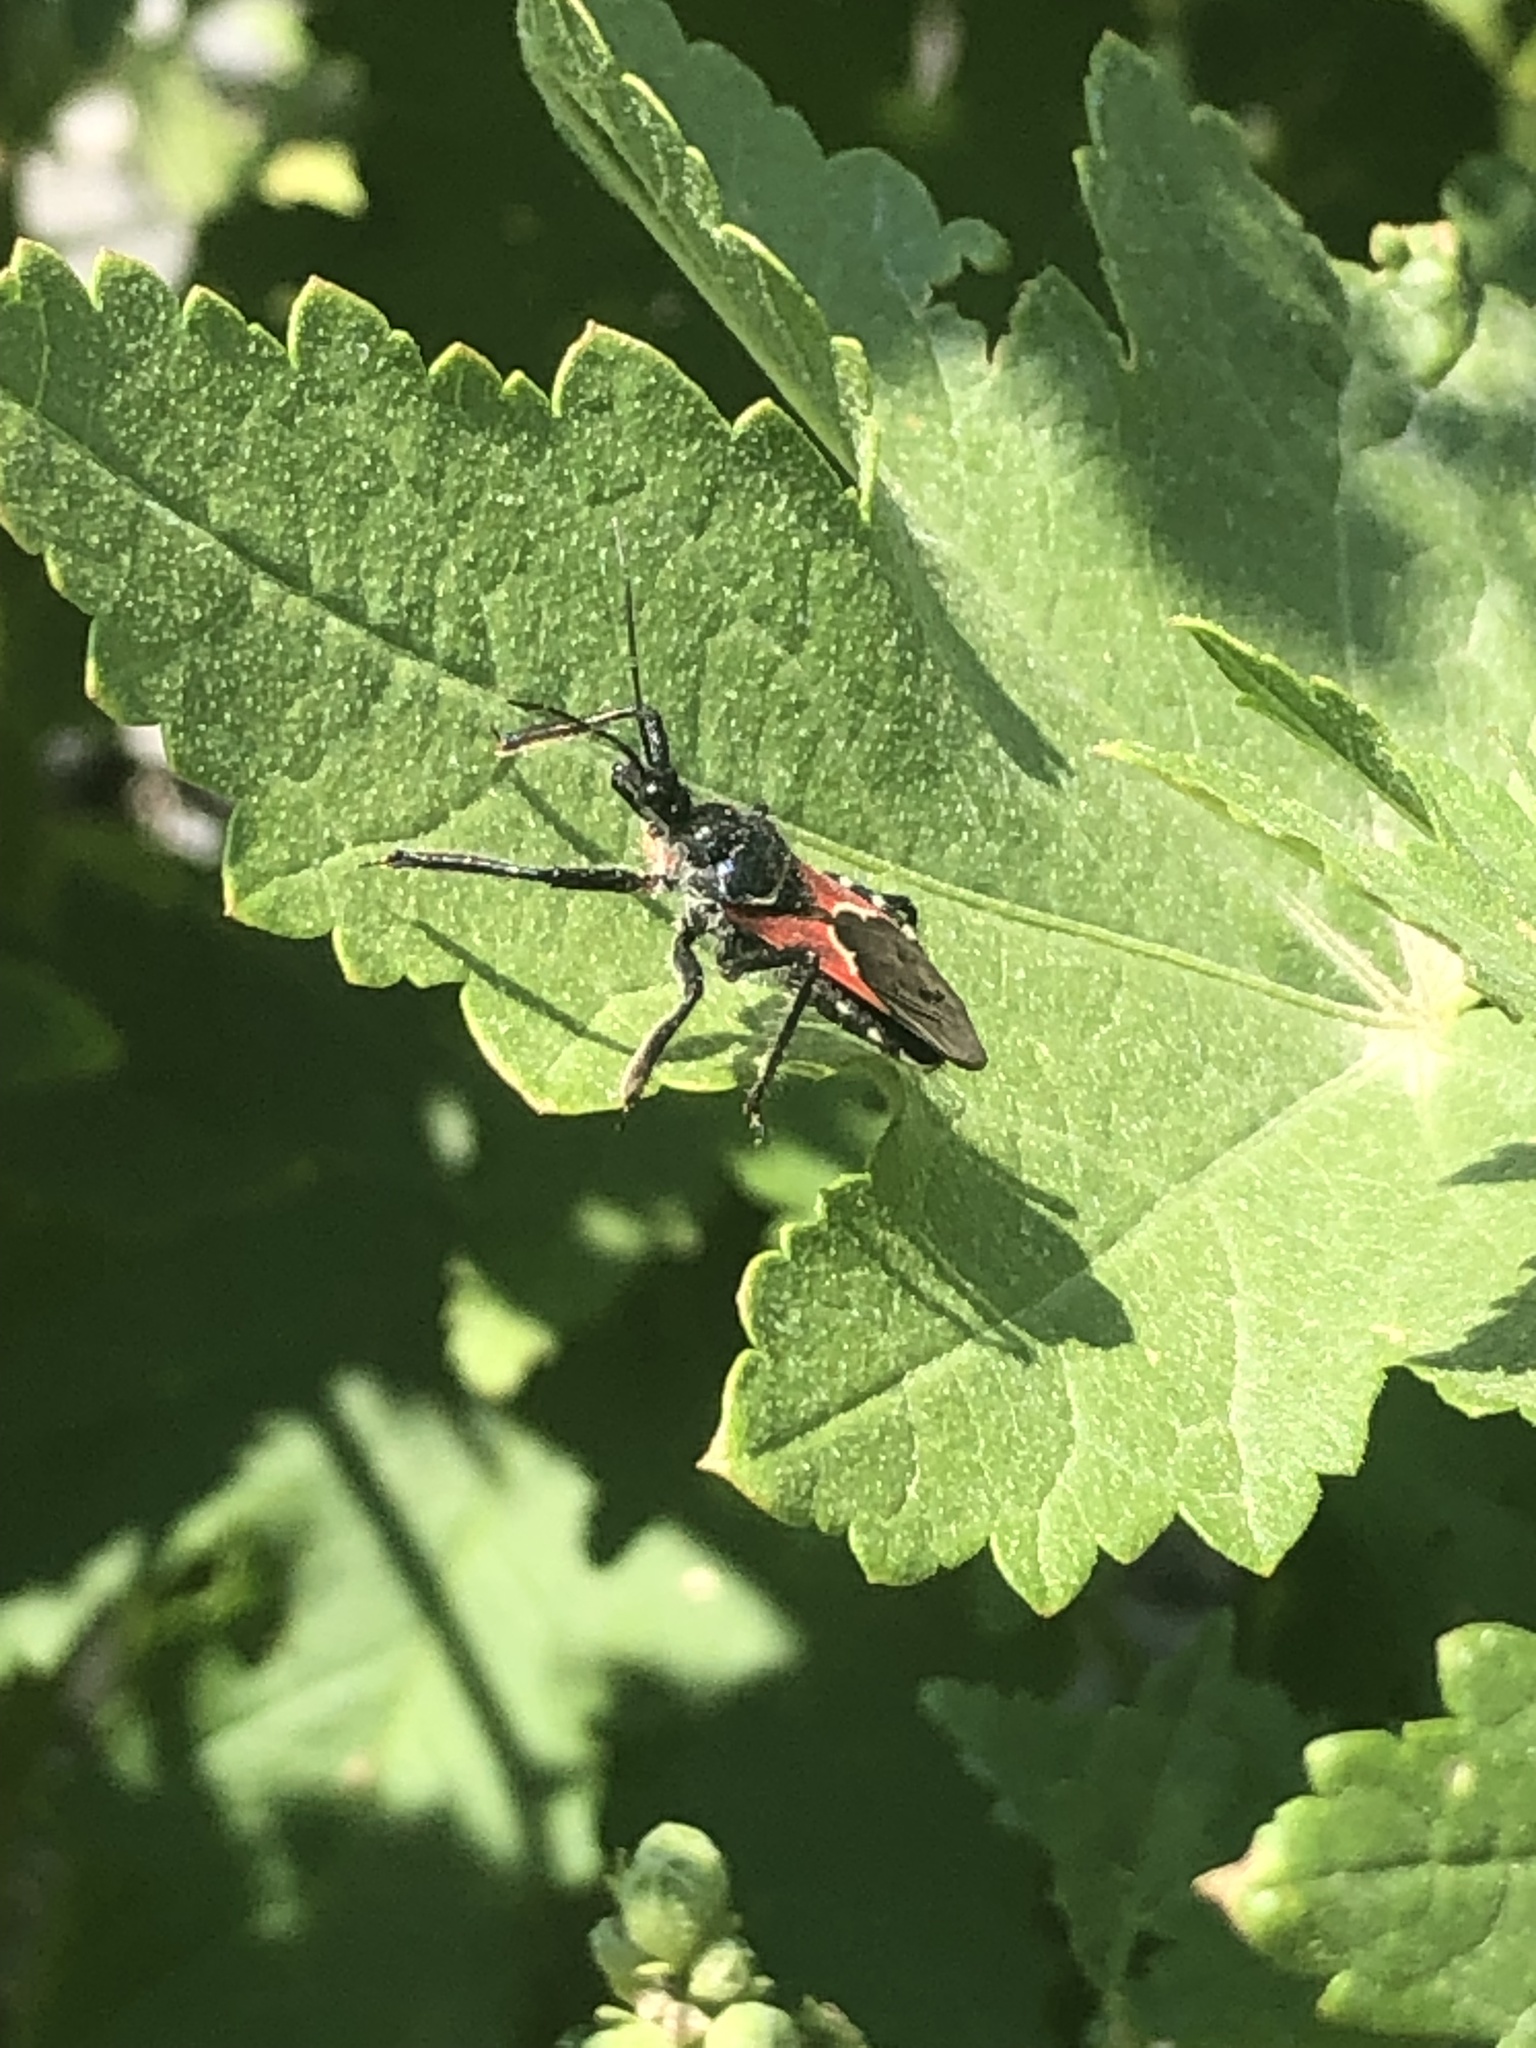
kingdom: Animalia
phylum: Arthropoda
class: Insecta
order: Hemiptera
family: Reduviidae
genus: Apiomerus
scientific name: Apiomerus montanus
